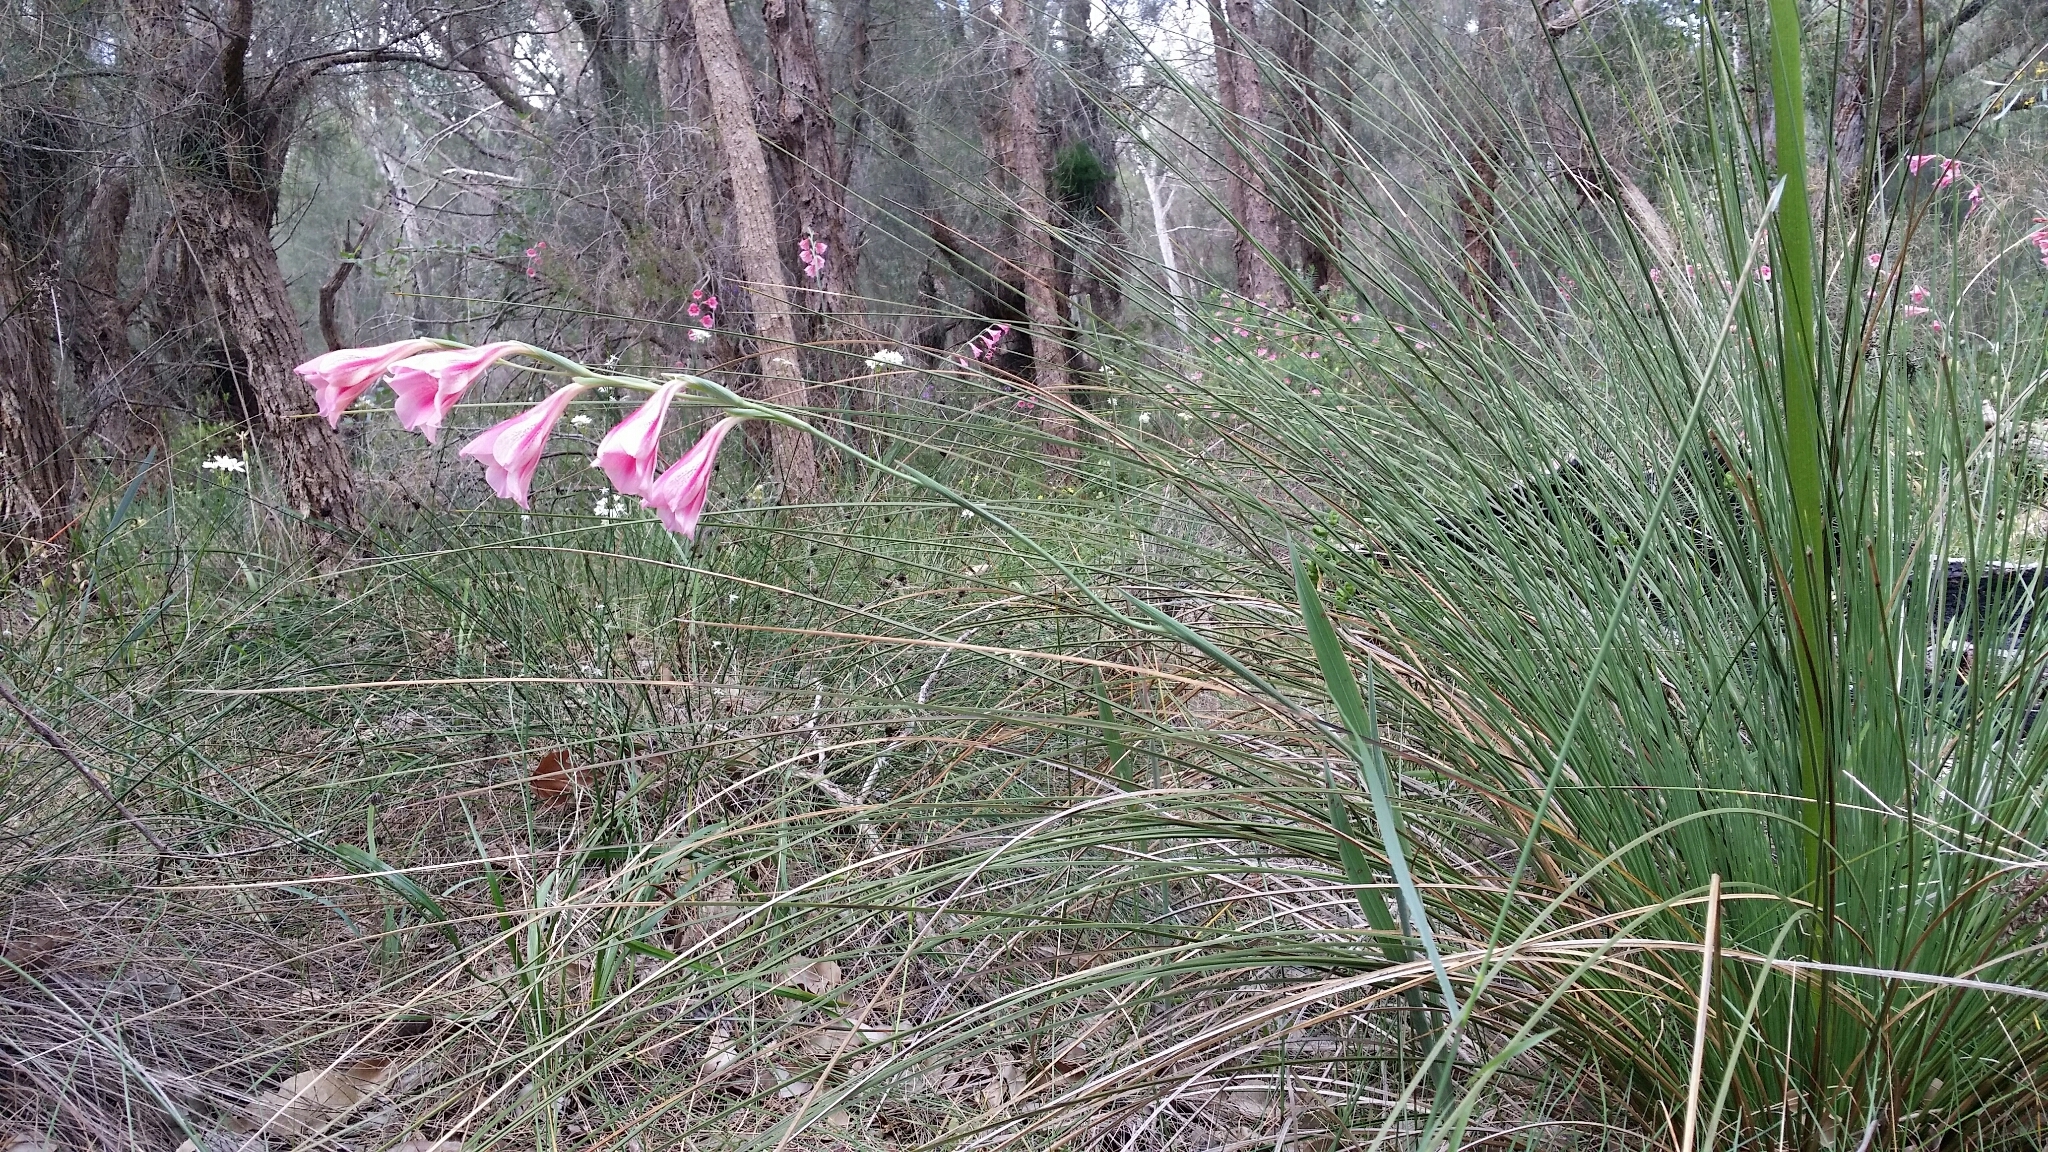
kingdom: Plantae
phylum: Tracheophyta
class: Liliopsida
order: Asparagales
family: Iridaceae
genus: Gladiolus
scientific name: Gladiolus caryophyllaceus
